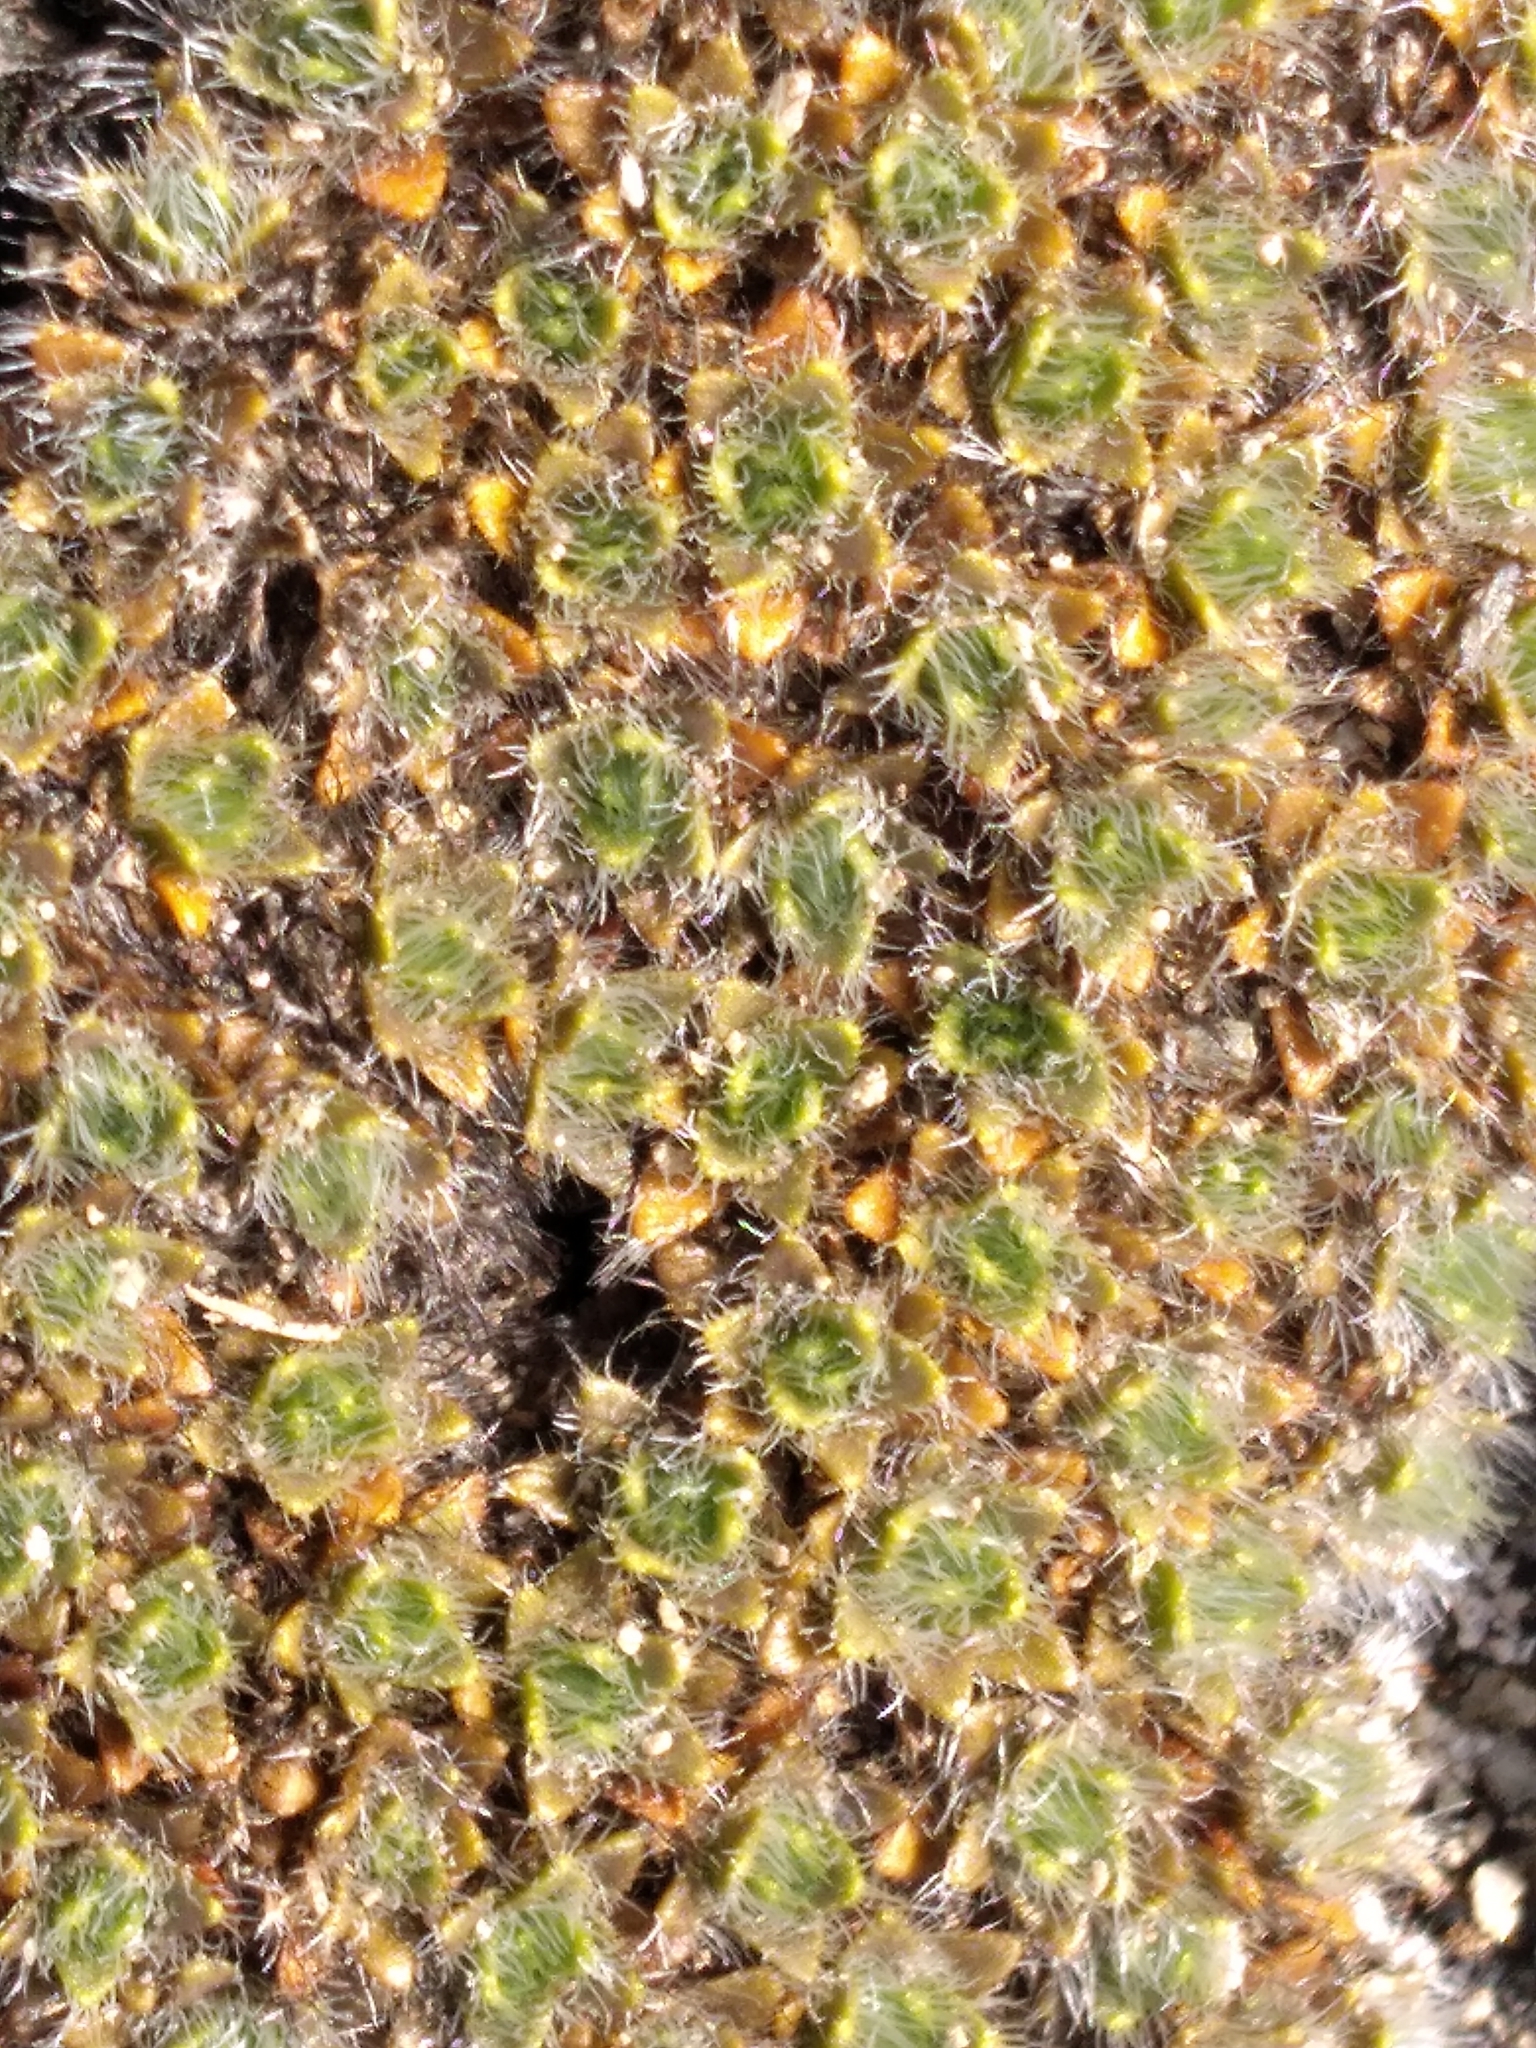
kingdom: Plantae
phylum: Tracheophyta
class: Magnoliopsida
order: Lamiales
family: Plantaginaceae
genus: Veronica
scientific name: Veronica pulvinaris
